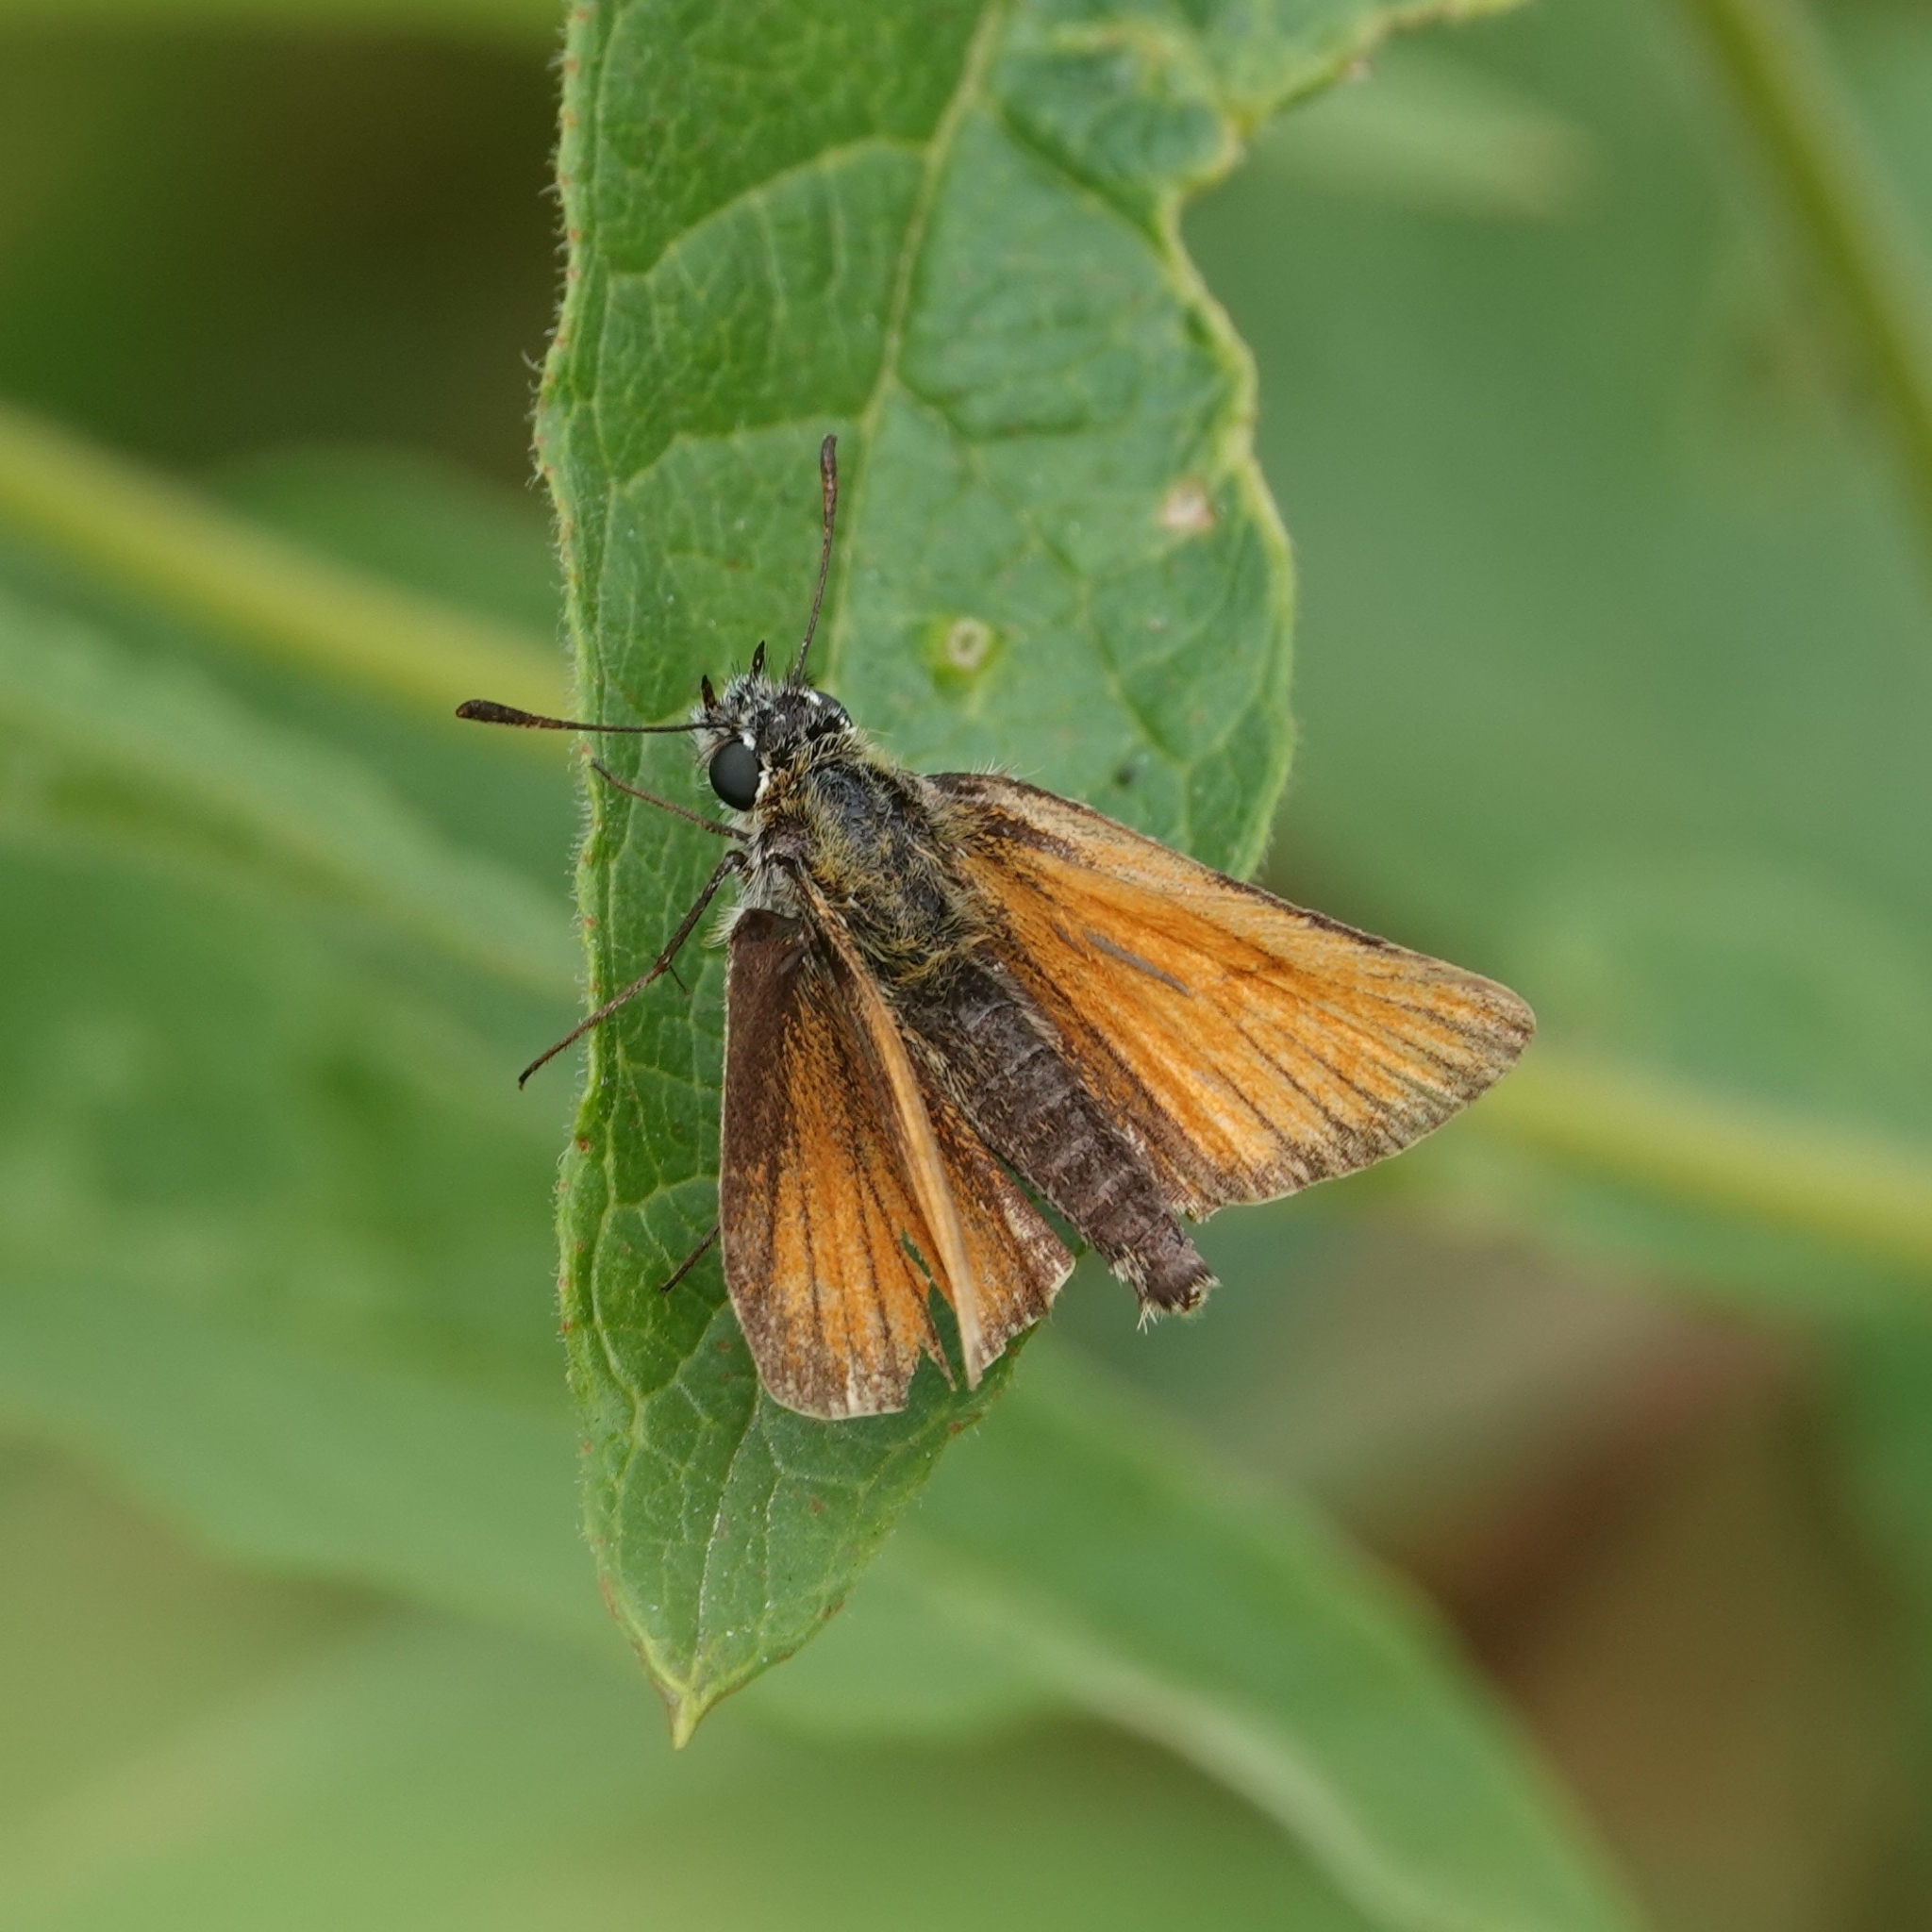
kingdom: Animalia
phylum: Arthropoda
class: Insecta
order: Lepidoptera
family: Hesperiidae
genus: Thymelicus
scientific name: Thymelicus lineola
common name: Essex skipper
